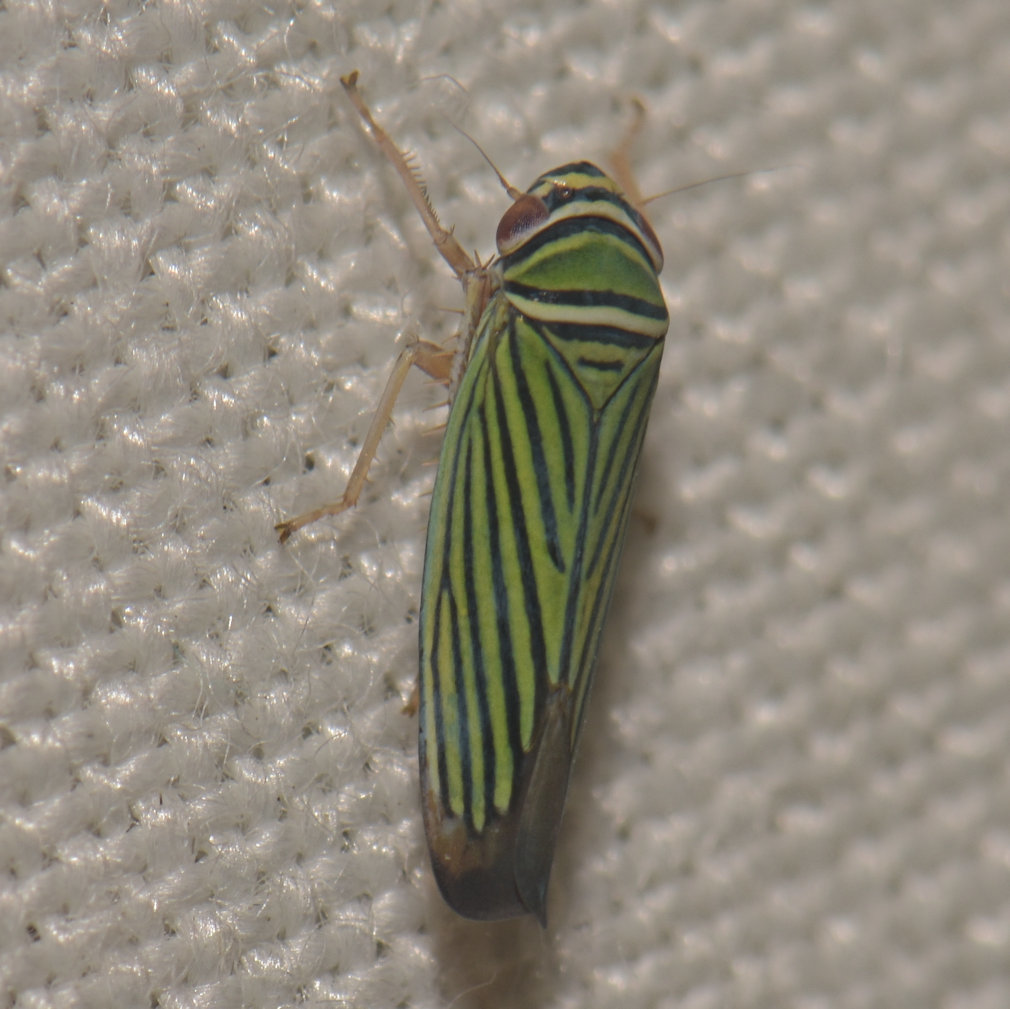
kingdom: Animalia
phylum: Arthropoda
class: Insecta
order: Hemiptera
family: Cicadellidae
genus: Tylozygus
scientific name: Tylozygus bifidus
